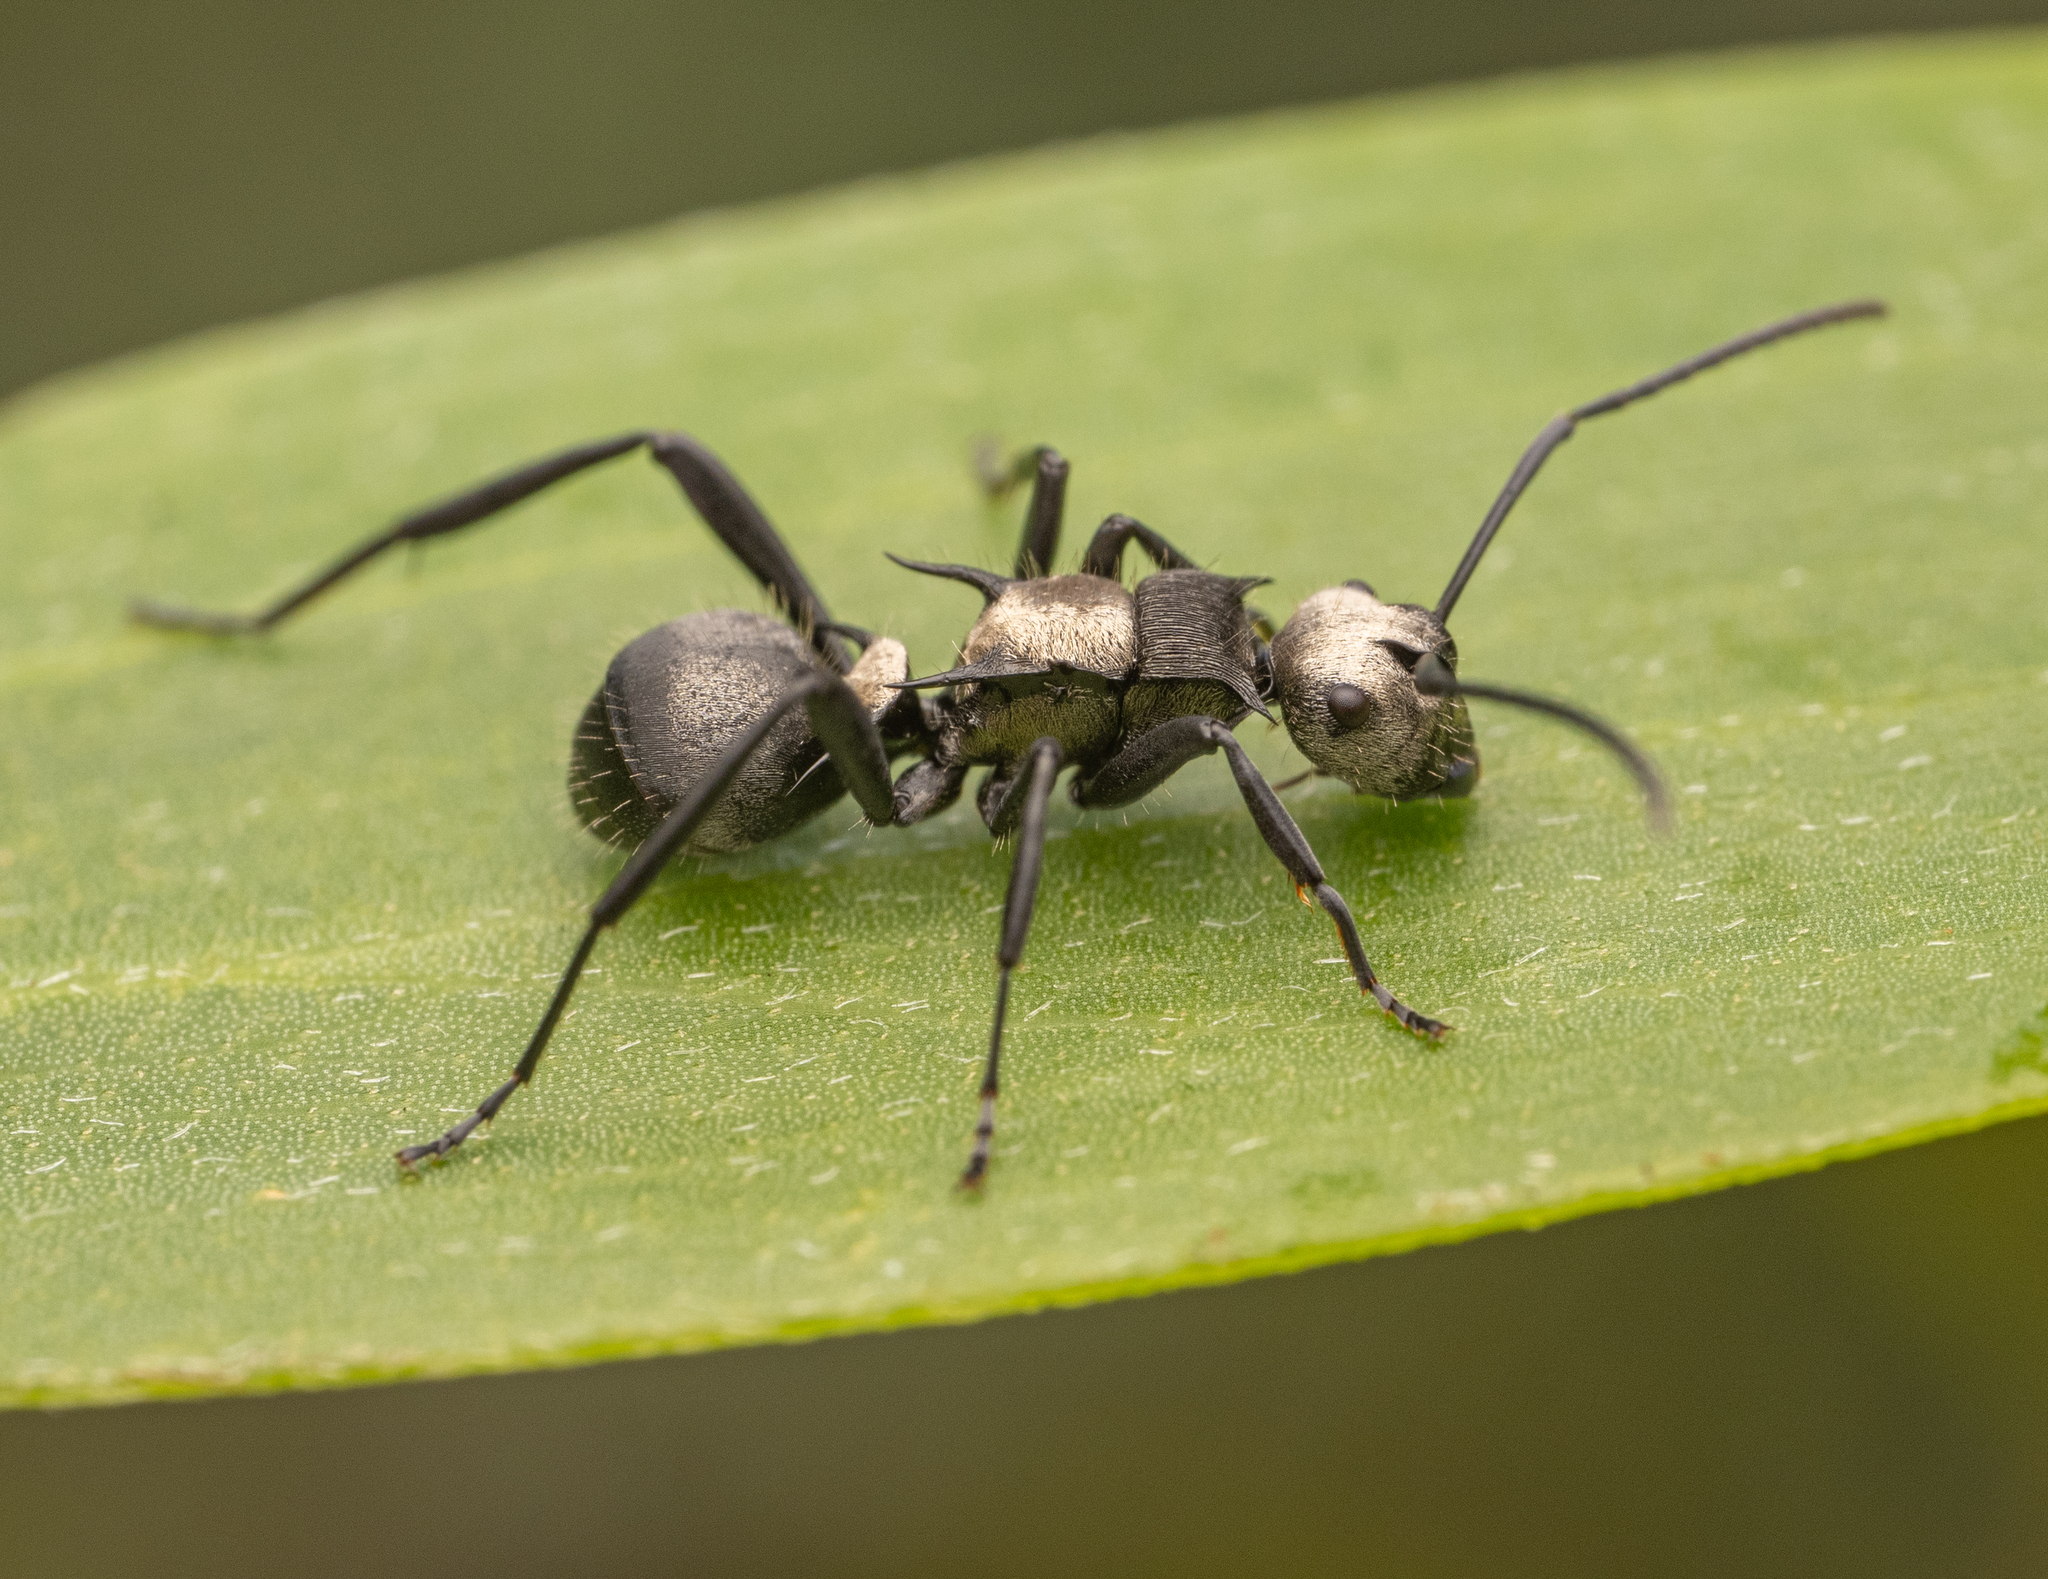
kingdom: Animalia
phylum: Arthropoda
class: Insecta
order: Hymenoptera
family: Formicidae
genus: Polyrhachis
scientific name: Polyrhachis daemeli
